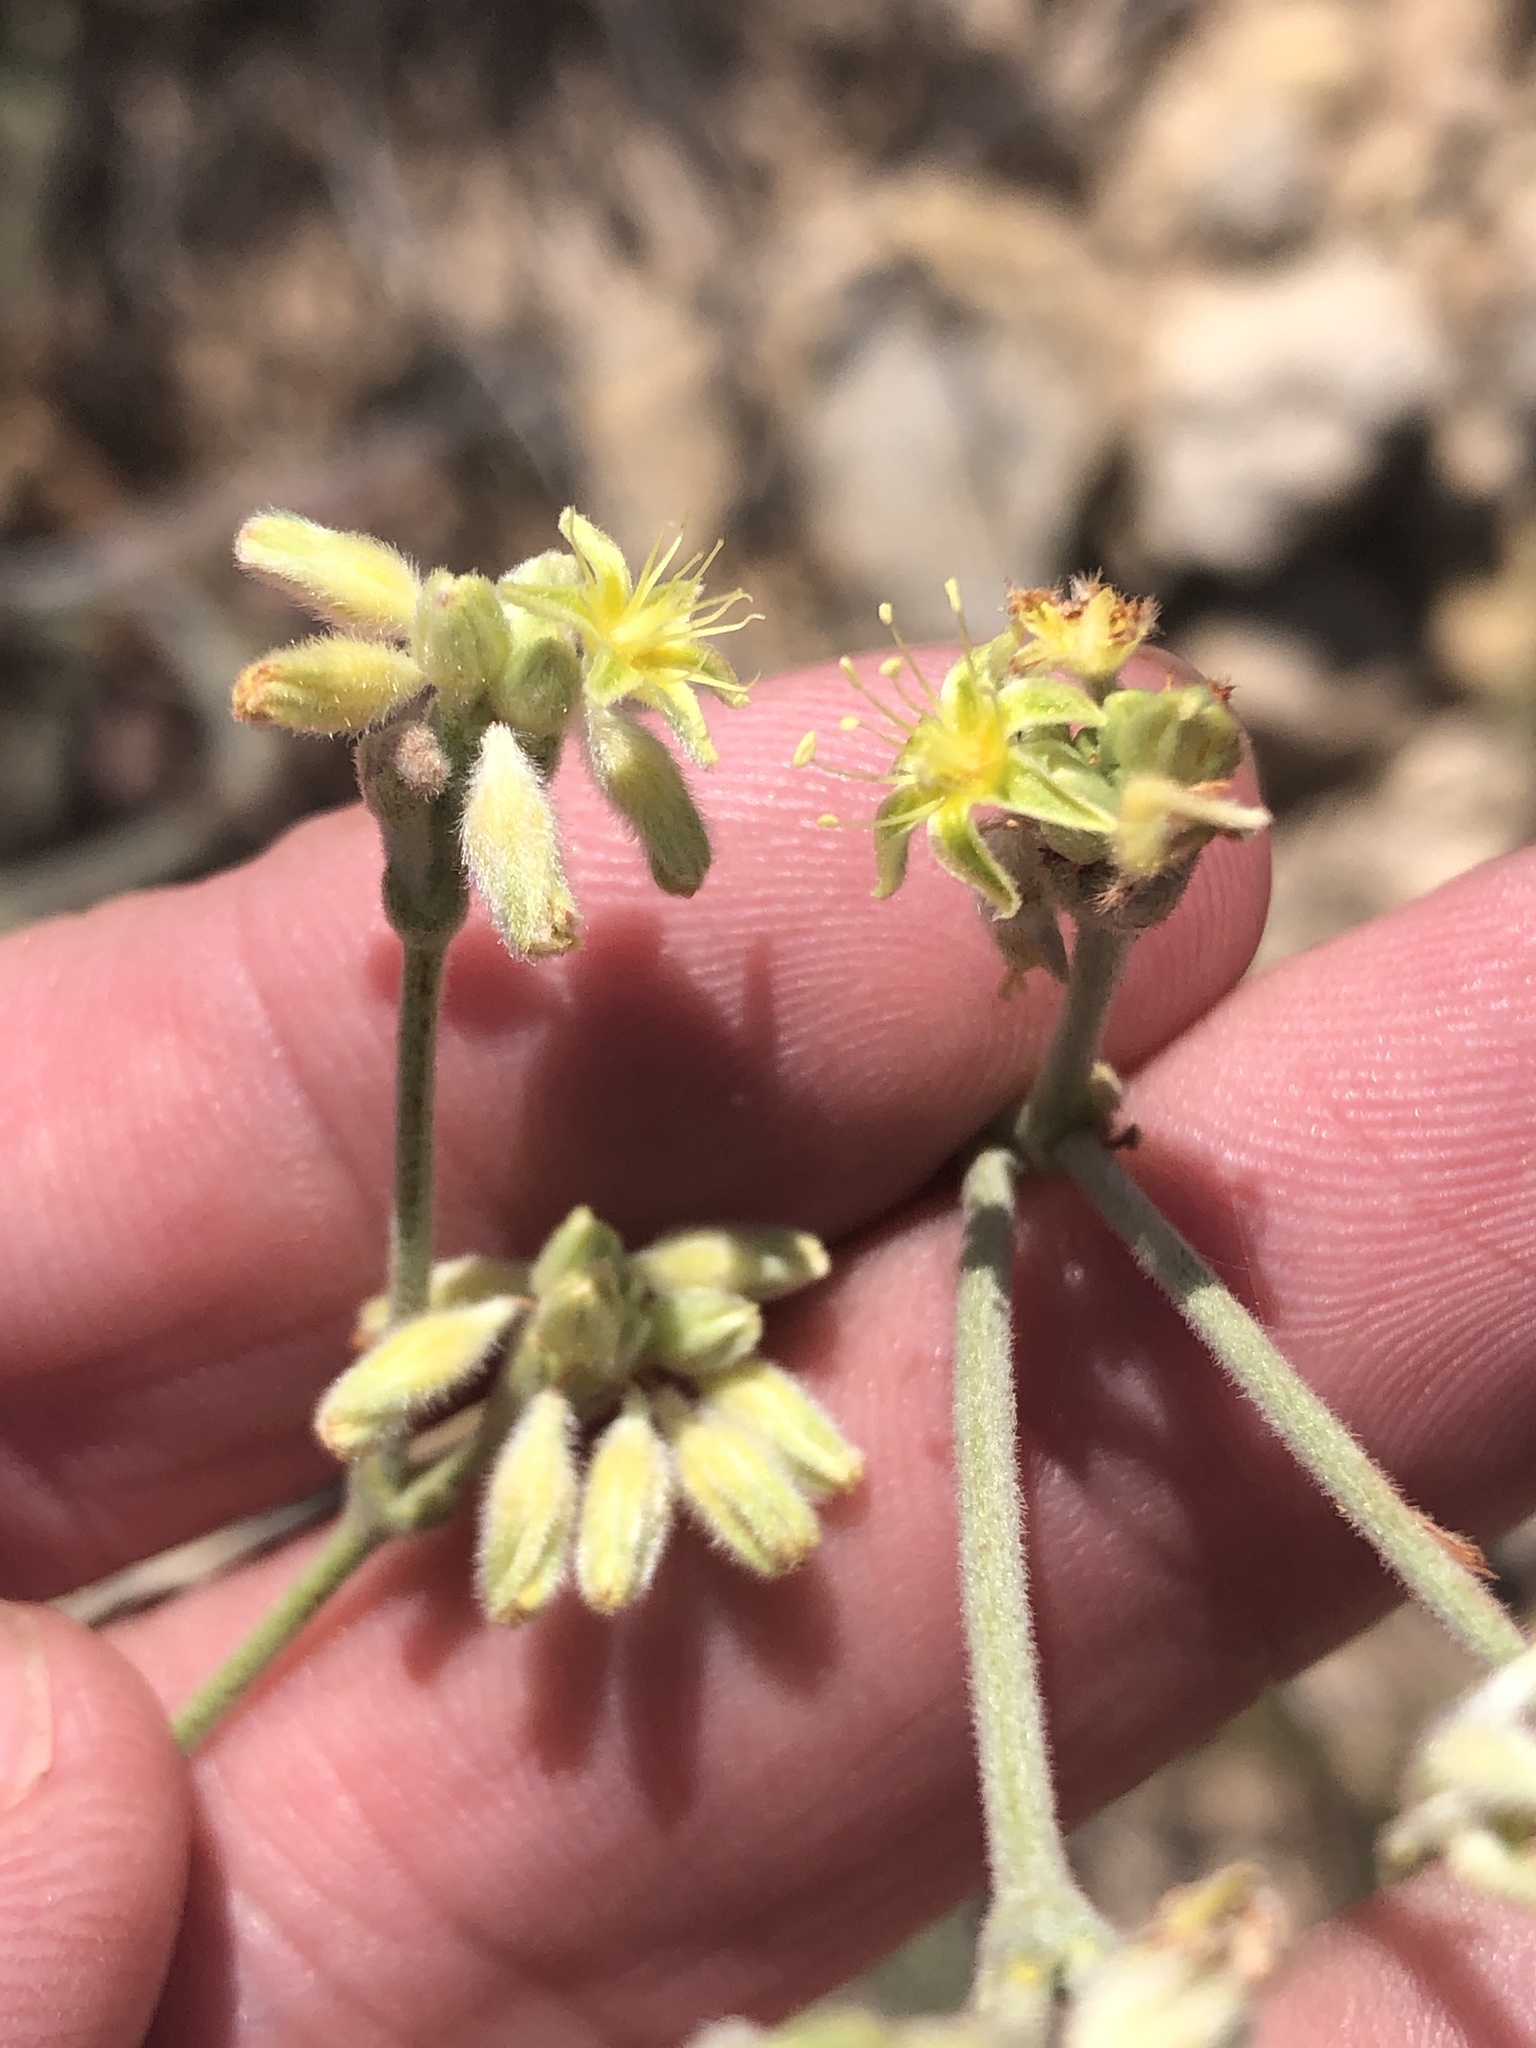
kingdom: Plantae
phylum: Tracheophyta
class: Magnoliopsida
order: Caryophyllales
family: Polygonaceae
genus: Eriogonum
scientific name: Eriogonum longifolium
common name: Longleaf wild buckwheat
